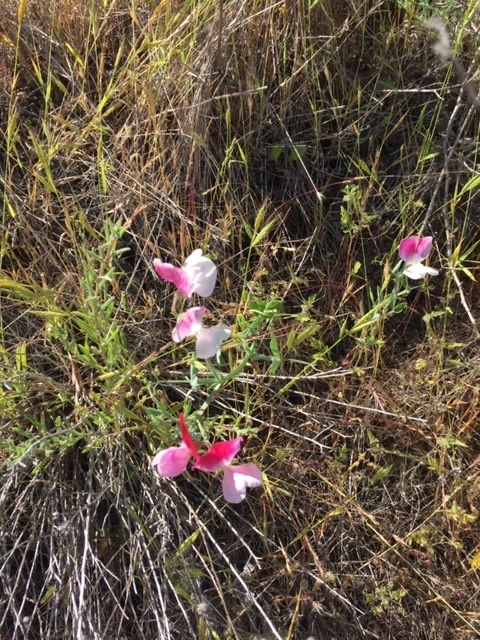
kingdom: Plantae
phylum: Tracheophyta
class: Magnoliopsida
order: Fabales
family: Fabaceae
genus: Lathyrus
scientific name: Lathyrus odoratus
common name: Sweet pea
